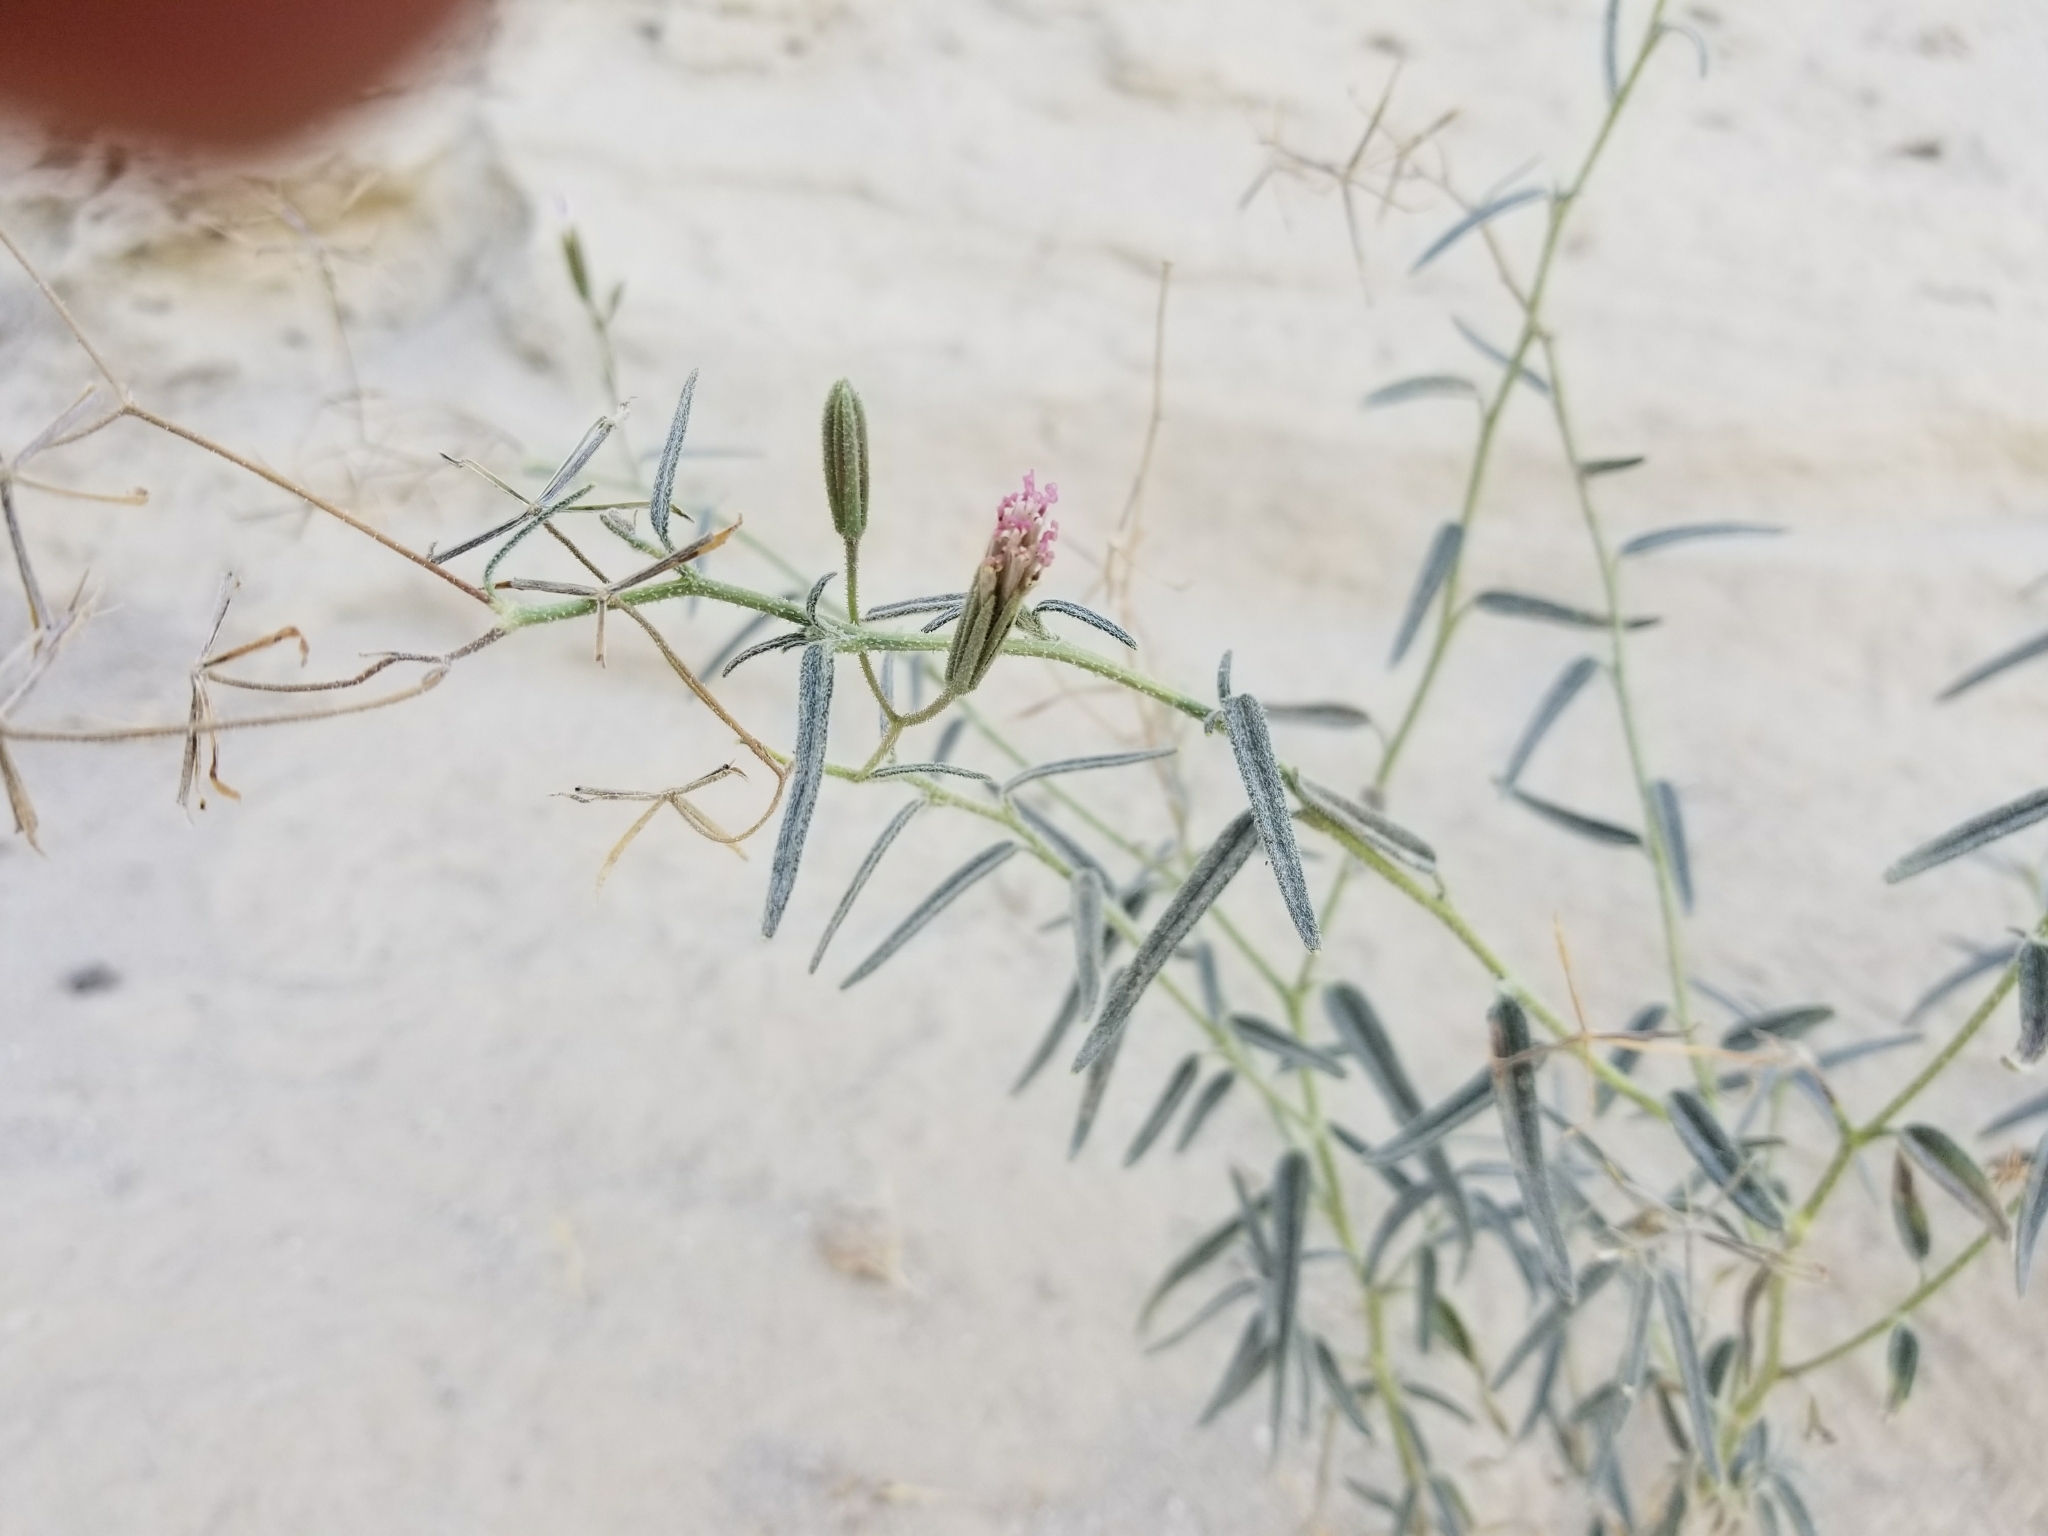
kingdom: Plantae
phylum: Tracheophyta
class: Magnoliopsida
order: Asterales
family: Asteraceae
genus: Palafoxia
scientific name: Palafoxia arida
